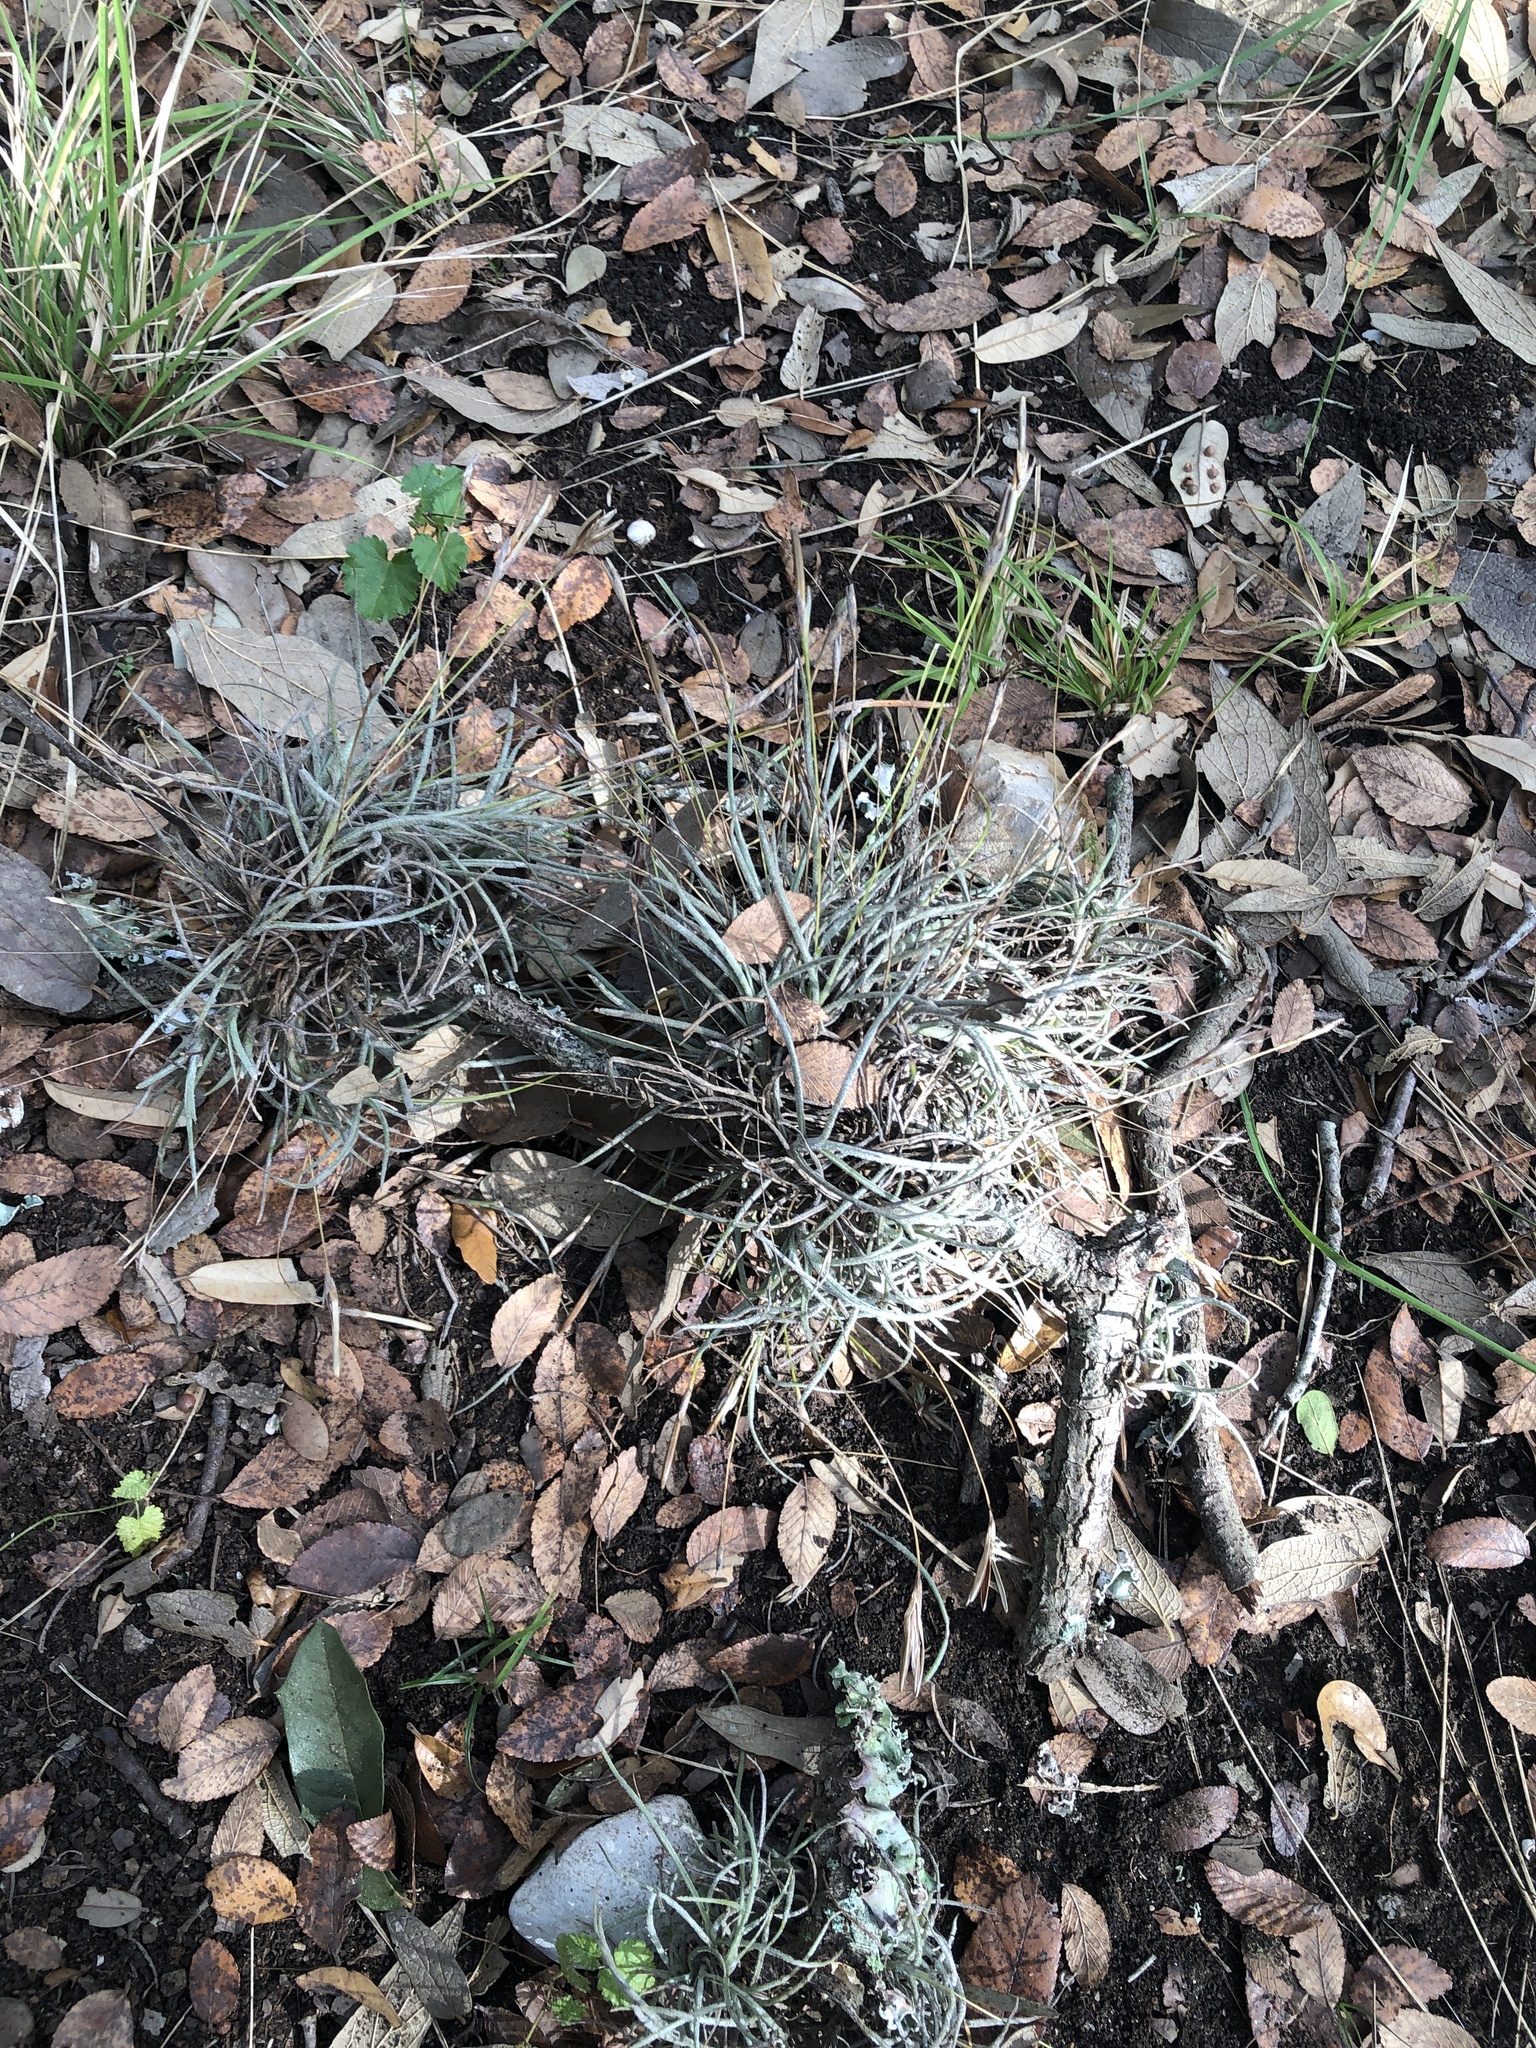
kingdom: Plantae
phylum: Tracheophyta
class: Liliopsida
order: Poales
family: Bromeliaceae
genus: Tillandsia
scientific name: Tillandsia recurvata
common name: Small ballmoss
